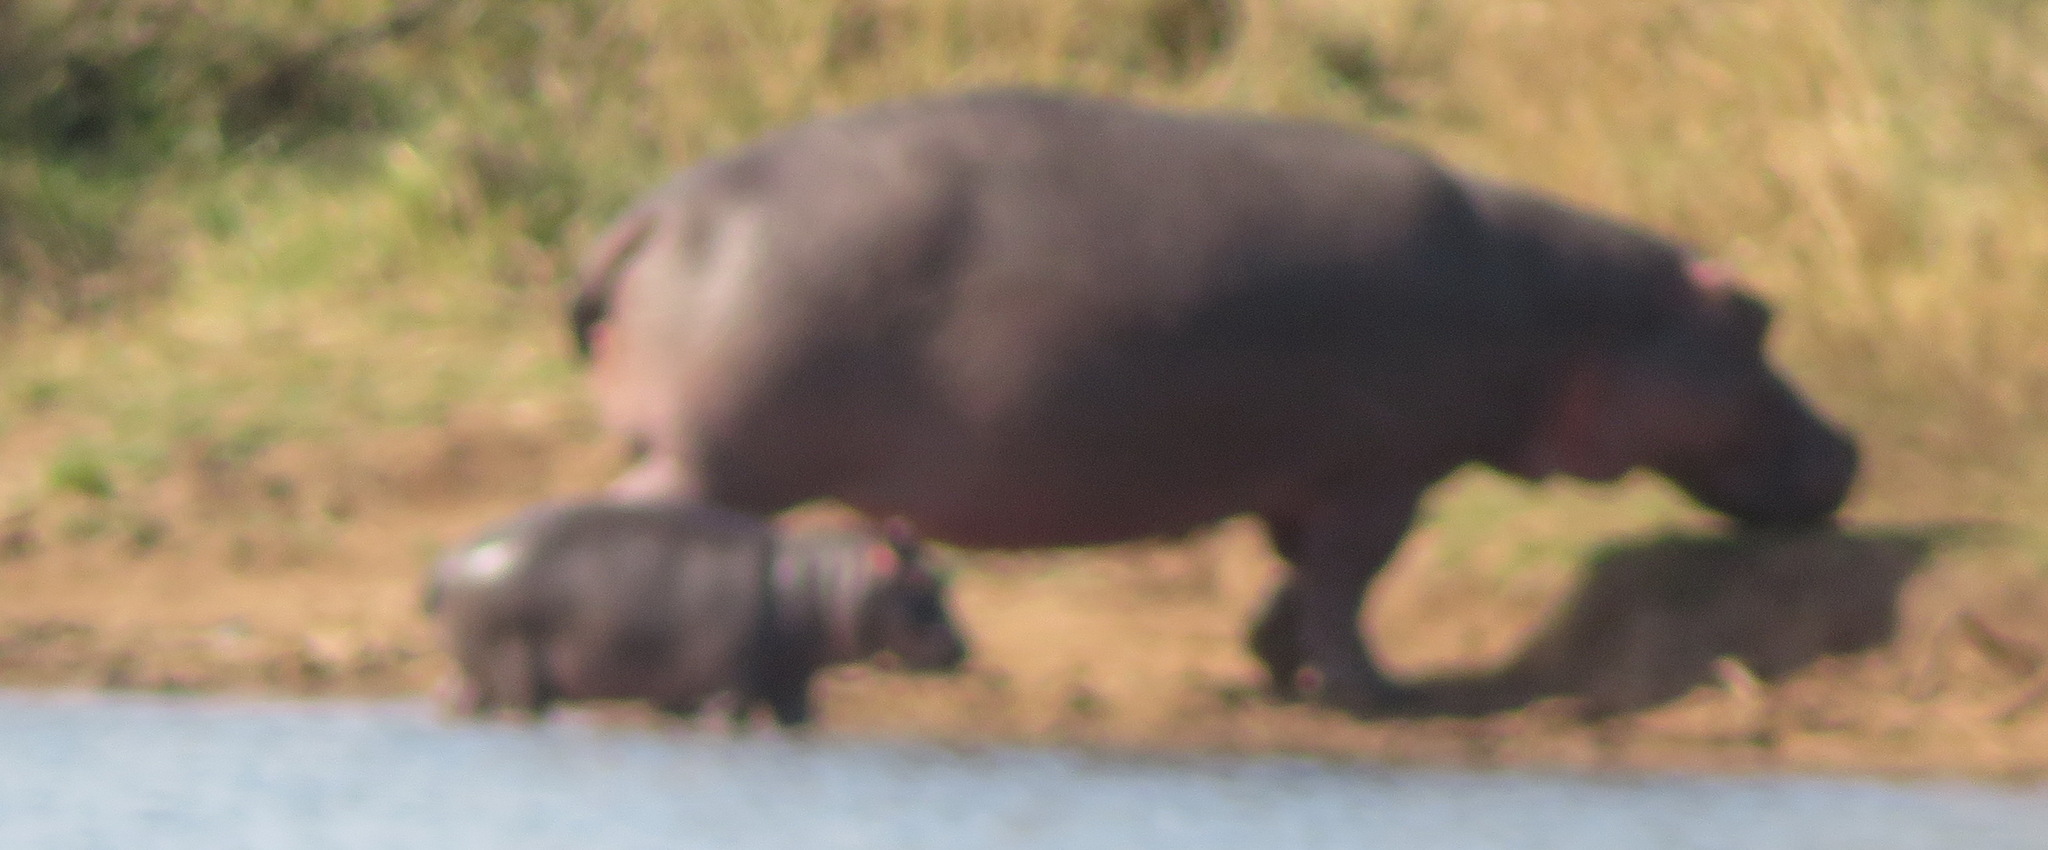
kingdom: Animalia
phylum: Chordata
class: Mammalia
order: Artiodactyla
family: Hippopotamidae
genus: Hippopotamus
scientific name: Hippopotamus amphibius
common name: Common hippopotamus
